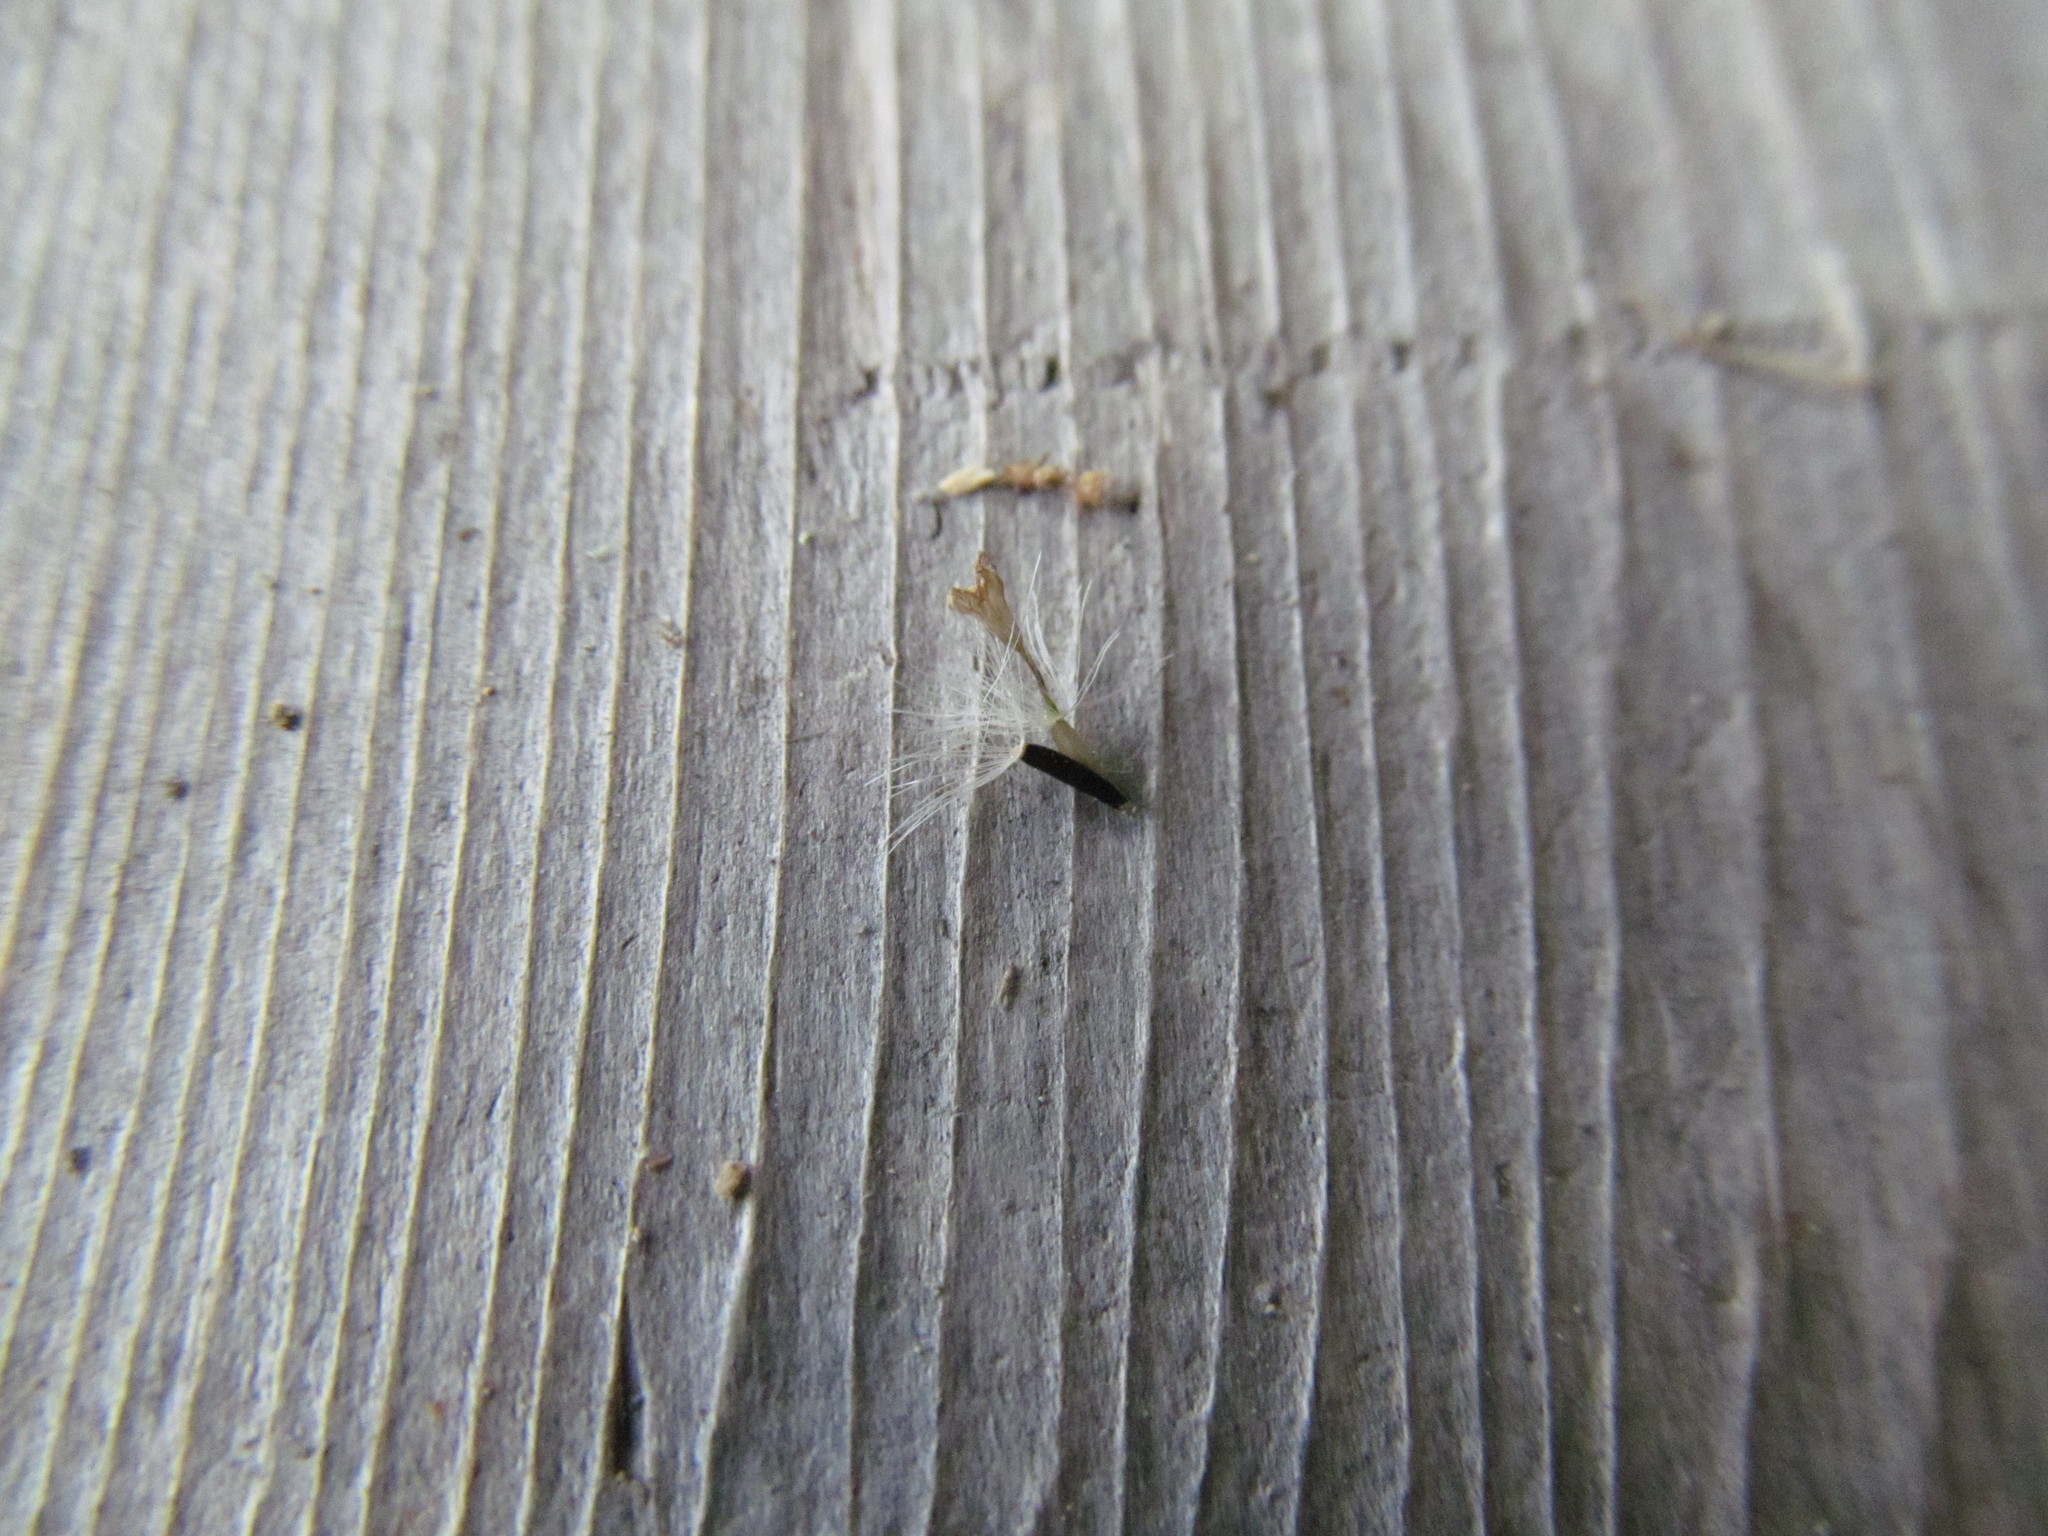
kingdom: Plantae
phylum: Tracheophyta
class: Magnoliopsida
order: Asterales
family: Asteraceae
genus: Ageratina
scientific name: Ageratina altissima
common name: White snakeroot
